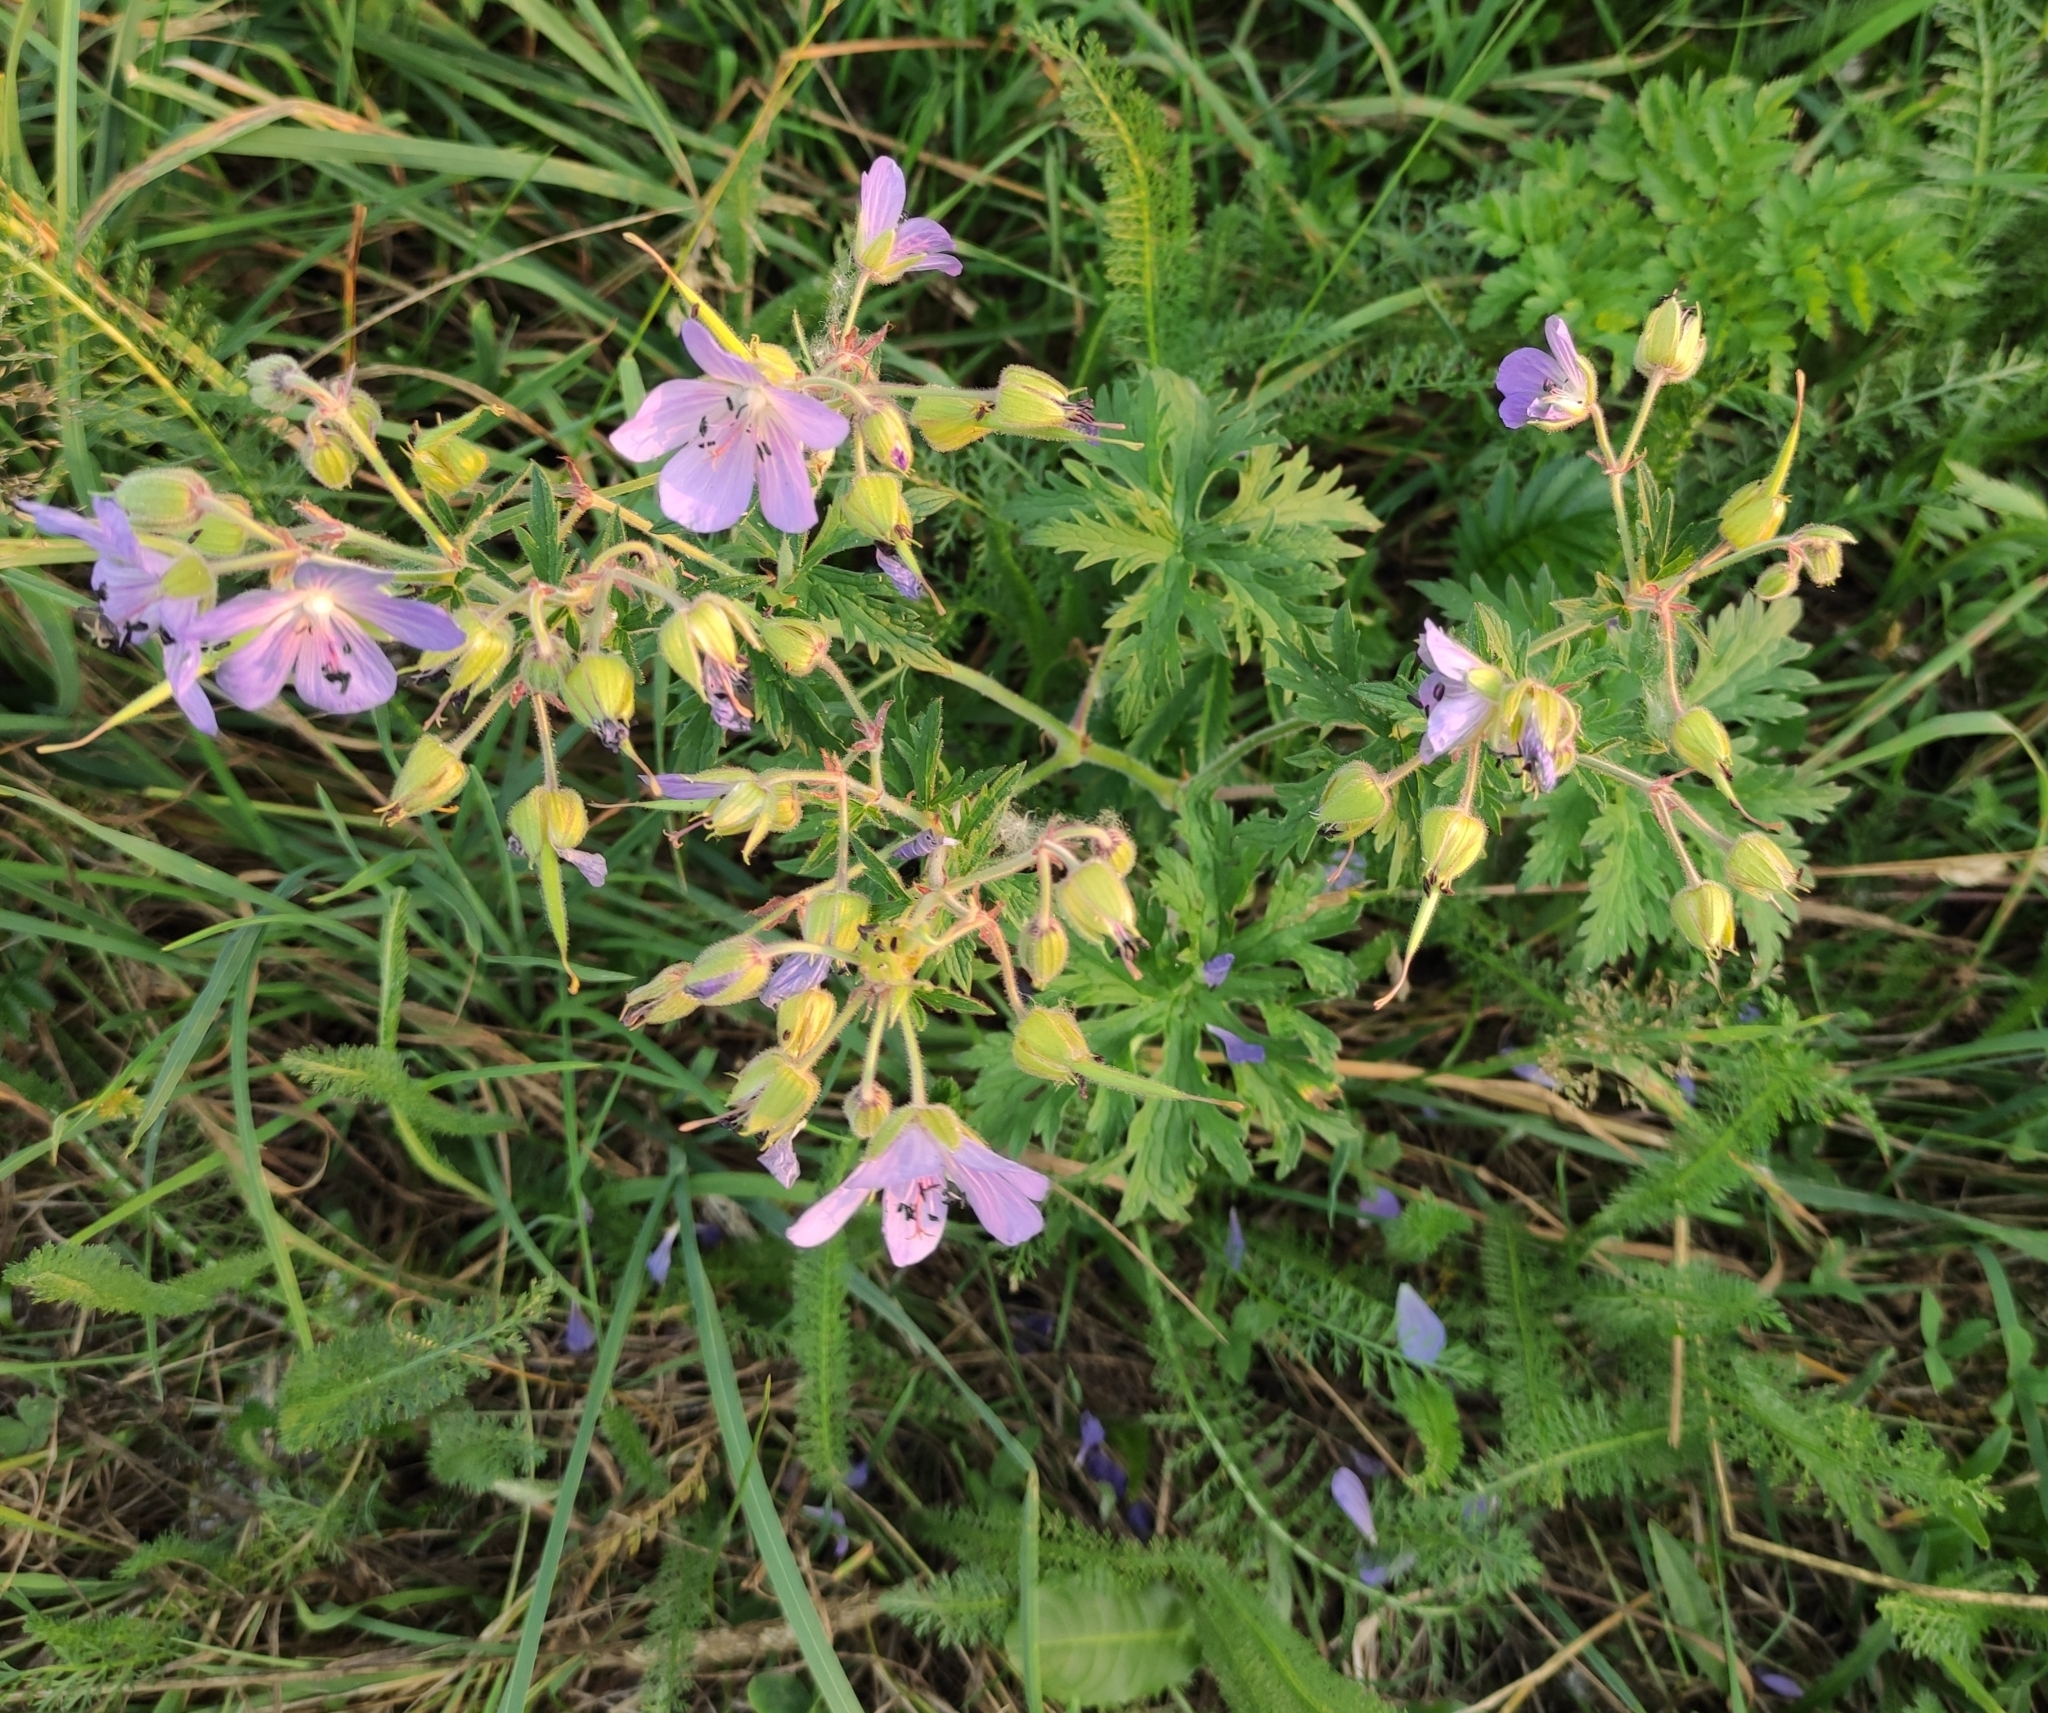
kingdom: Plantae
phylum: Tracheophyta
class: Magnoliopsida
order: Geraniales
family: Geraniaceae
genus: Geranium
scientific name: Geranium pratense
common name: Meadow crane's-bill
